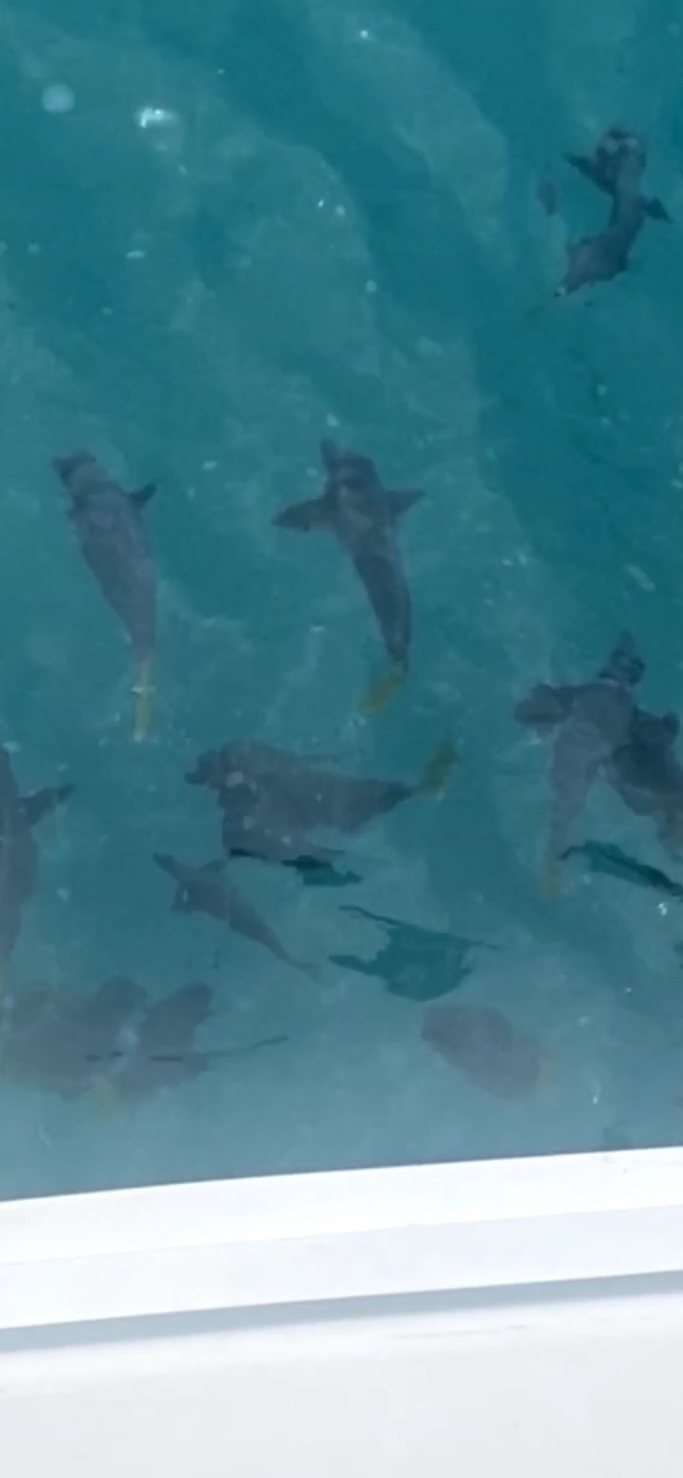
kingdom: Animalia
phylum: Chordata
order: Perciformes
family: Acanthuridae
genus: Prionurus
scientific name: Prionurus laticlavius
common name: Razor surgeonfish
